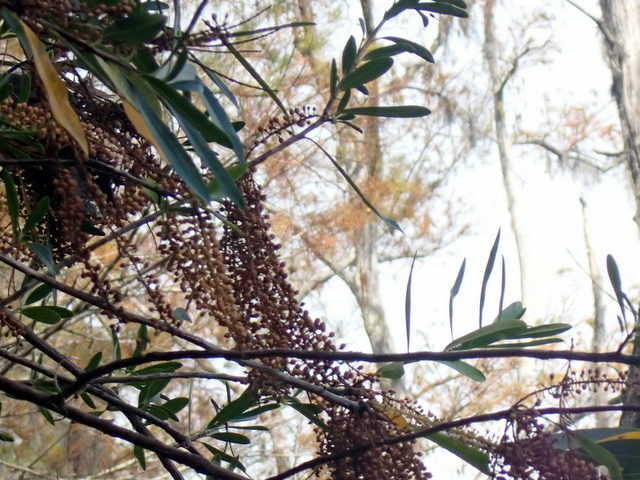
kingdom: Plantae
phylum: Tracheophyta
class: Magnoliopsida
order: Ericales
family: Cyrillaceae
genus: Cyrilla
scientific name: Cyrilla racemiflora
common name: Black titi
